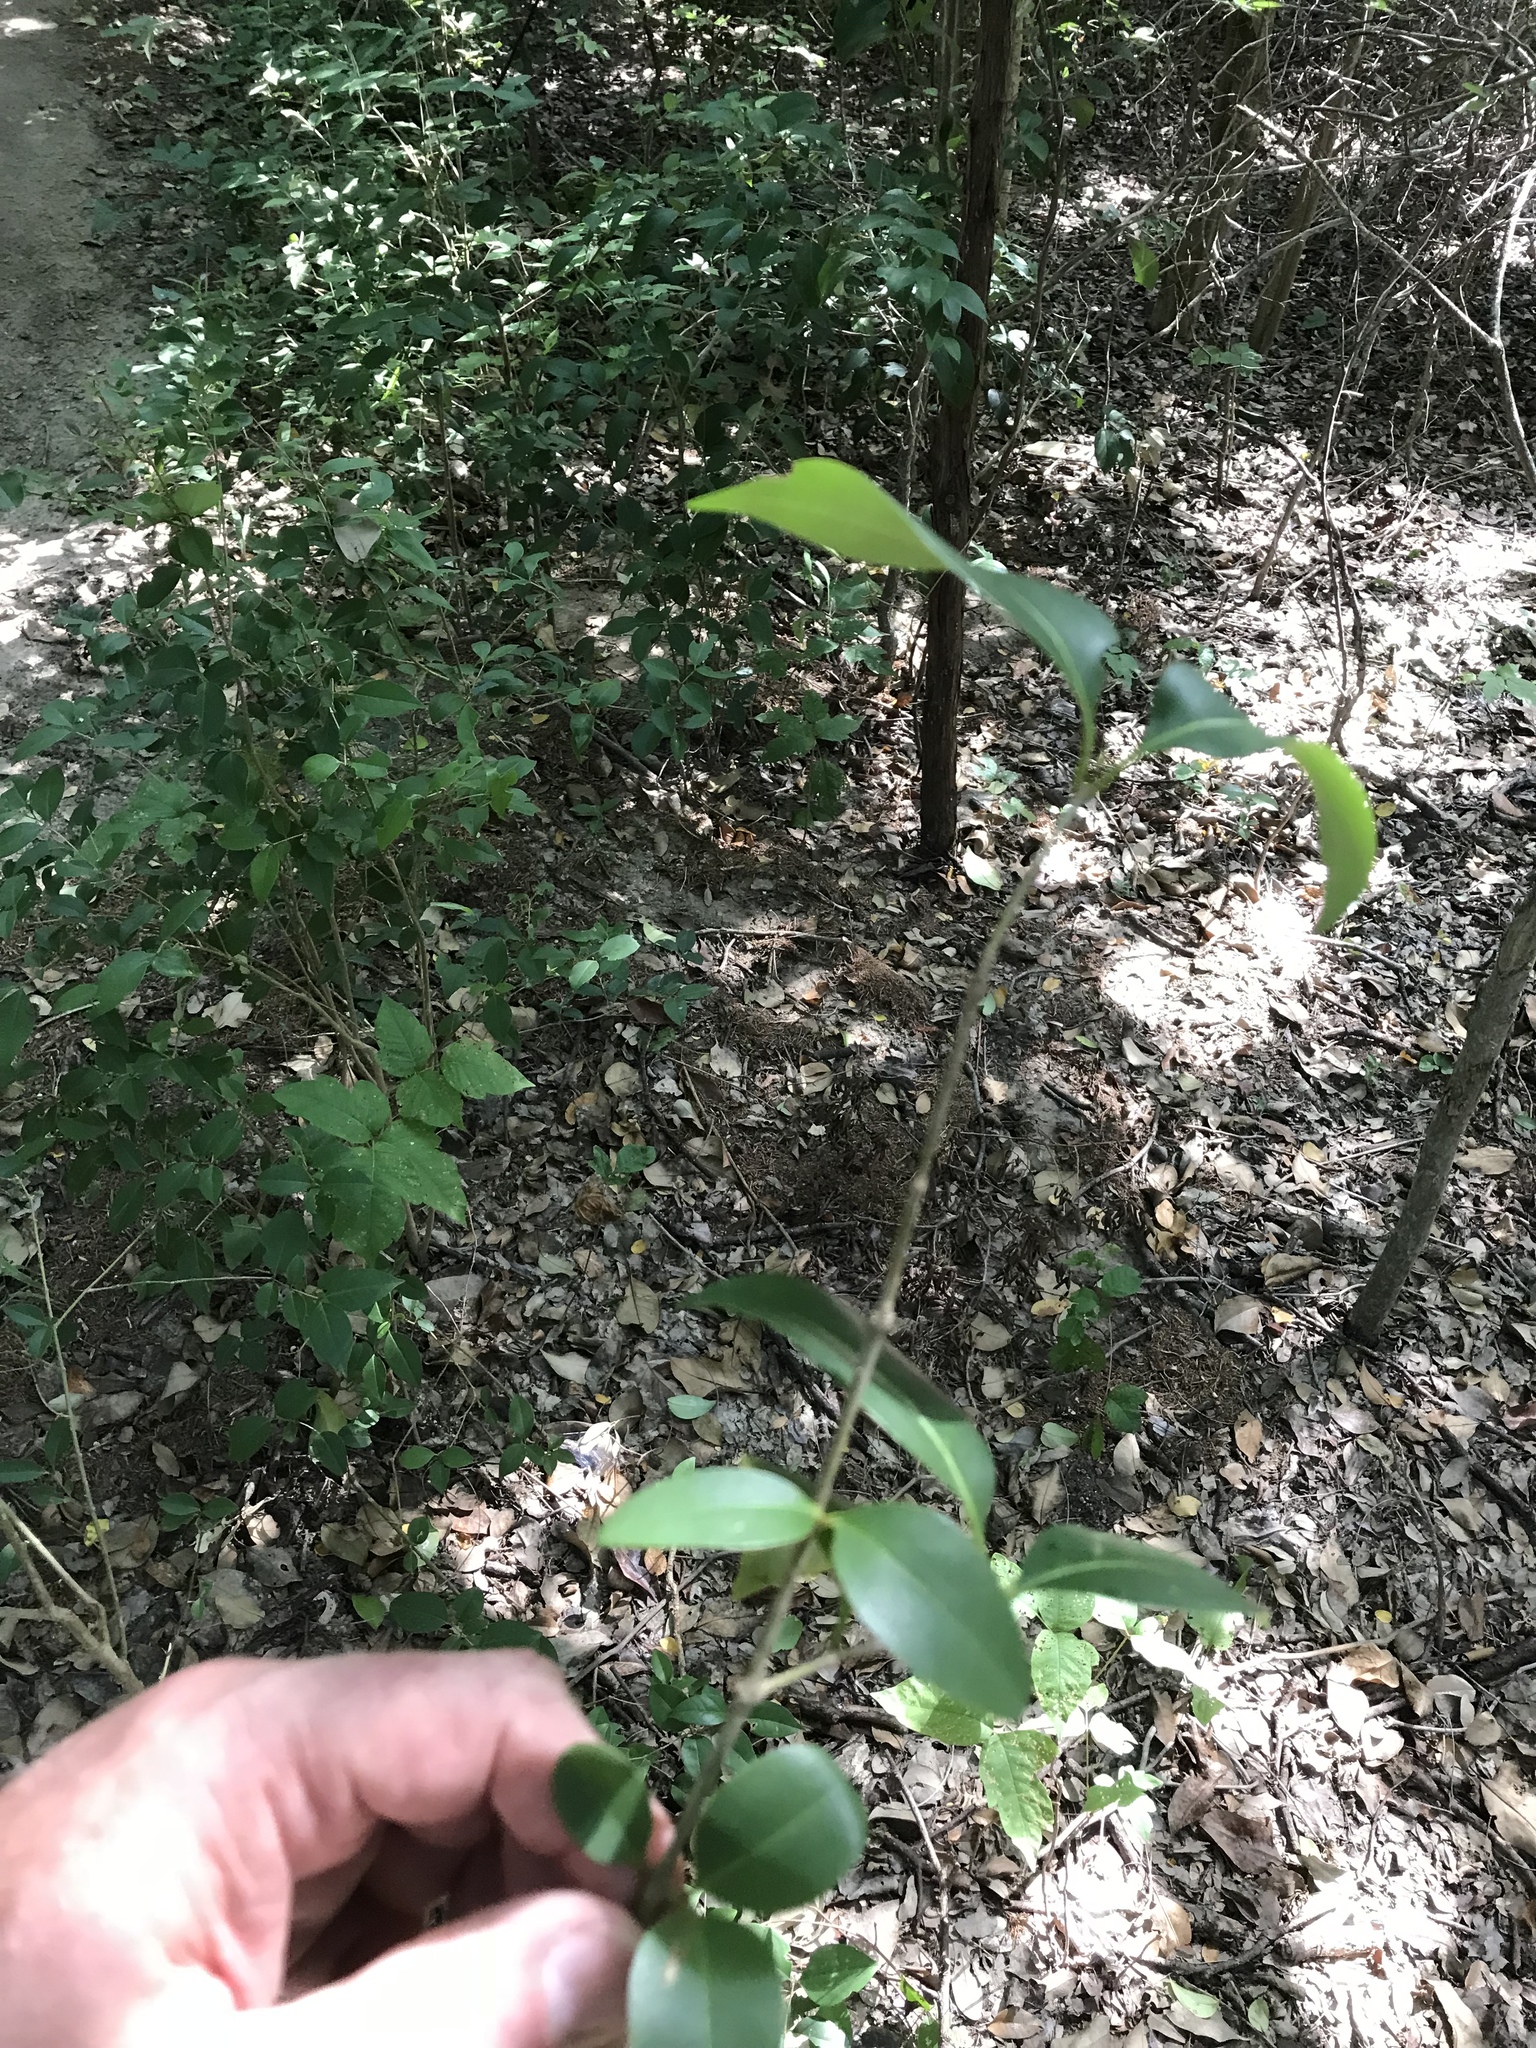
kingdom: Plantae
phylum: Tracheophyta
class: Magnoliopsida
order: Lamiales
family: Oleaceae
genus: Ligustrum
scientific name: Ligustrum lucidum
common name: Glossy privet
